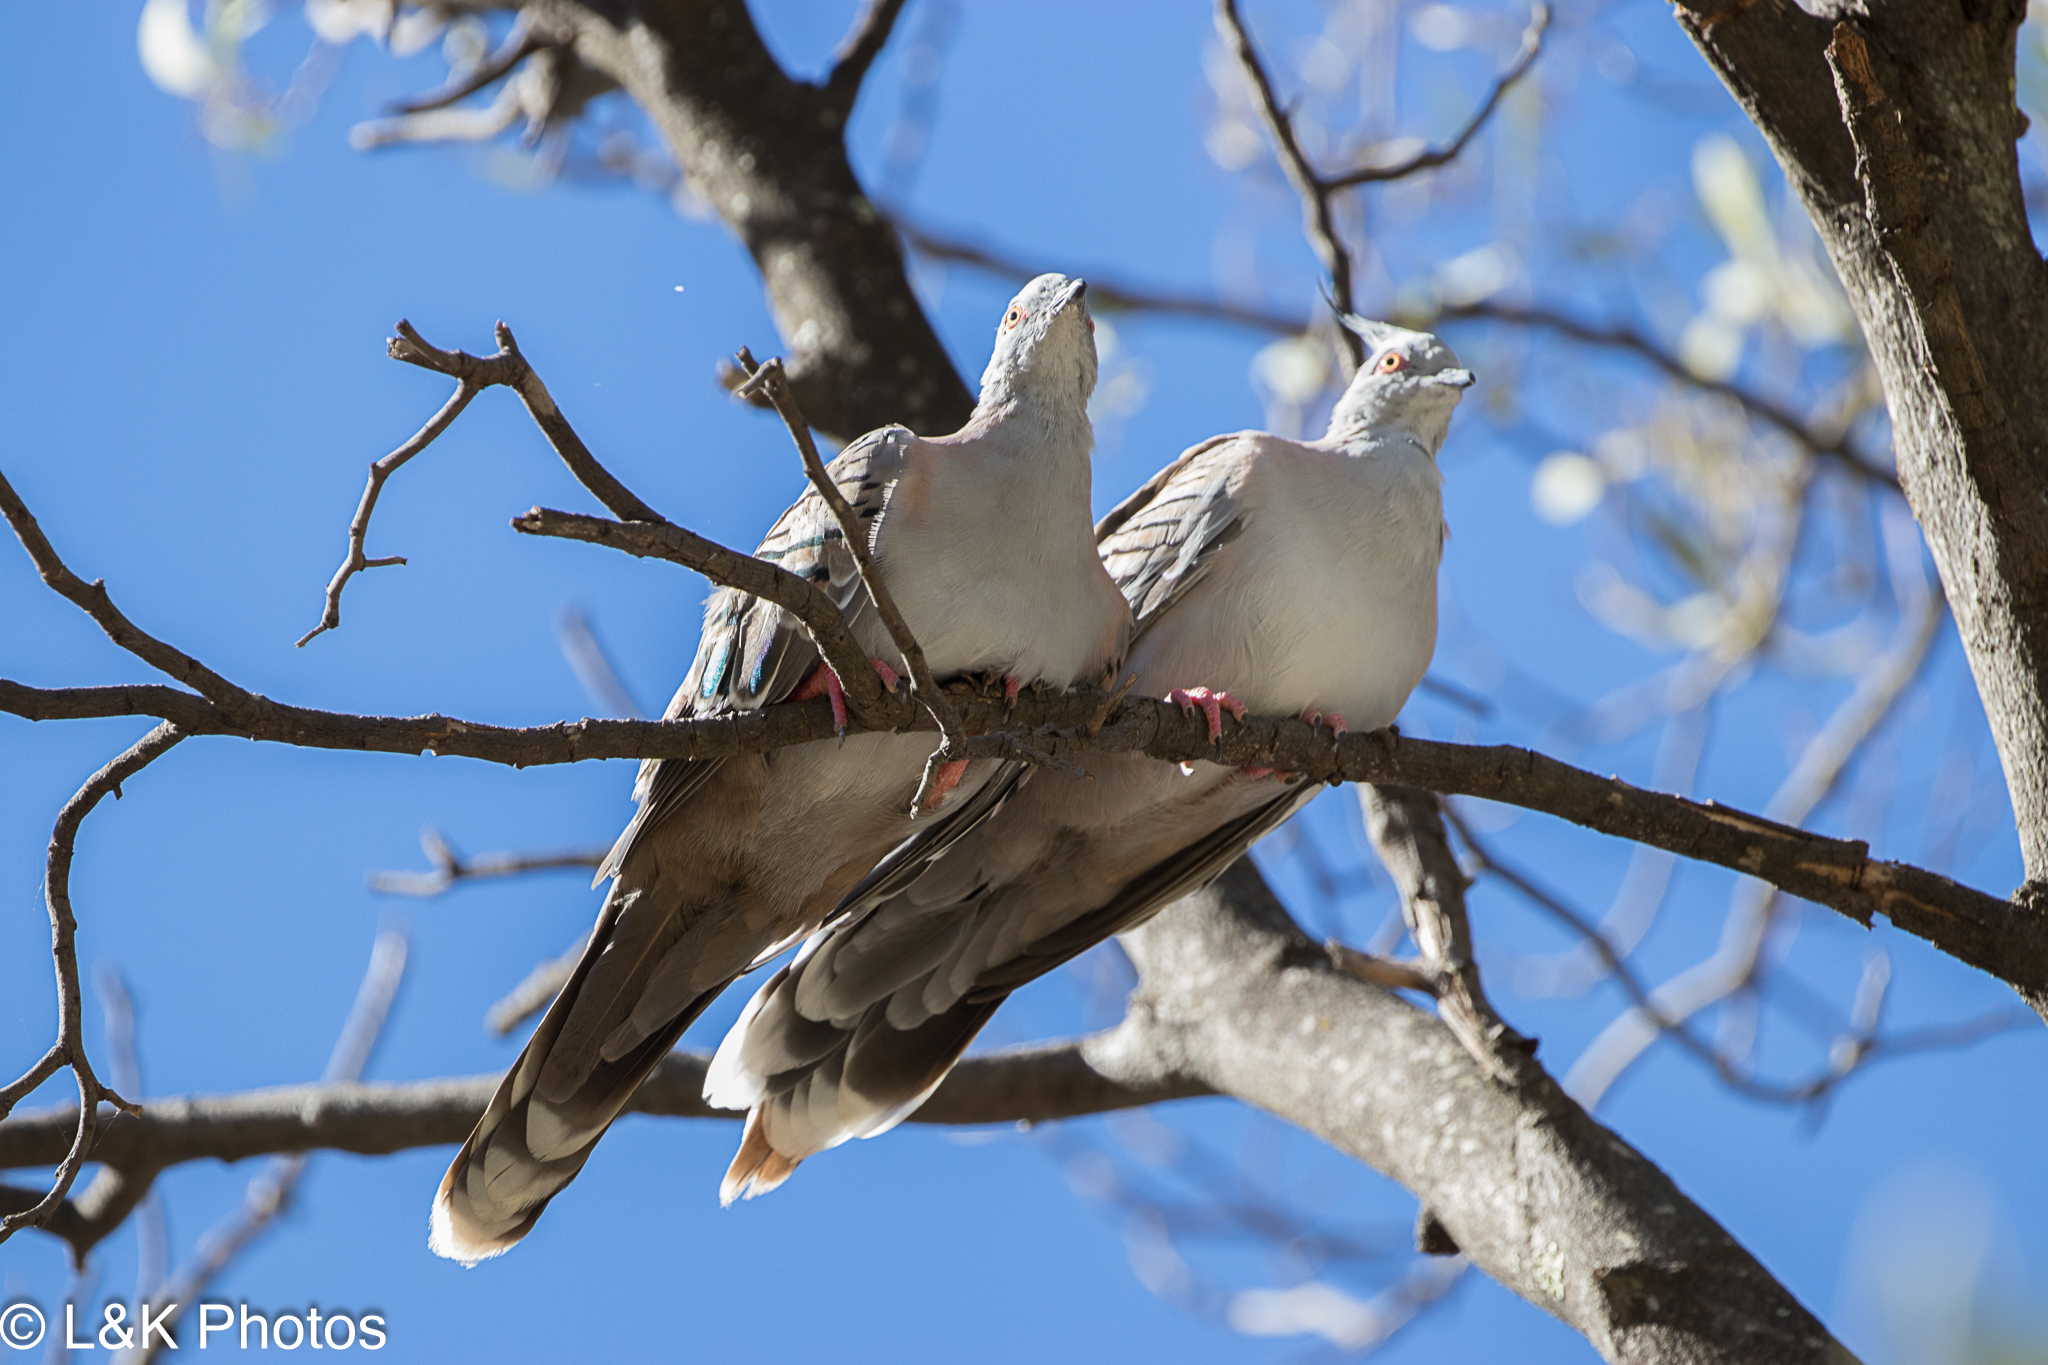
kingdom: Animalia
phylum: Chordata
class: Aves
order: Columbiformes
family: Columbidae
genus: Ocyphaps
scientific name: Ocyphaps lophotes
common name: Crested pigeon
